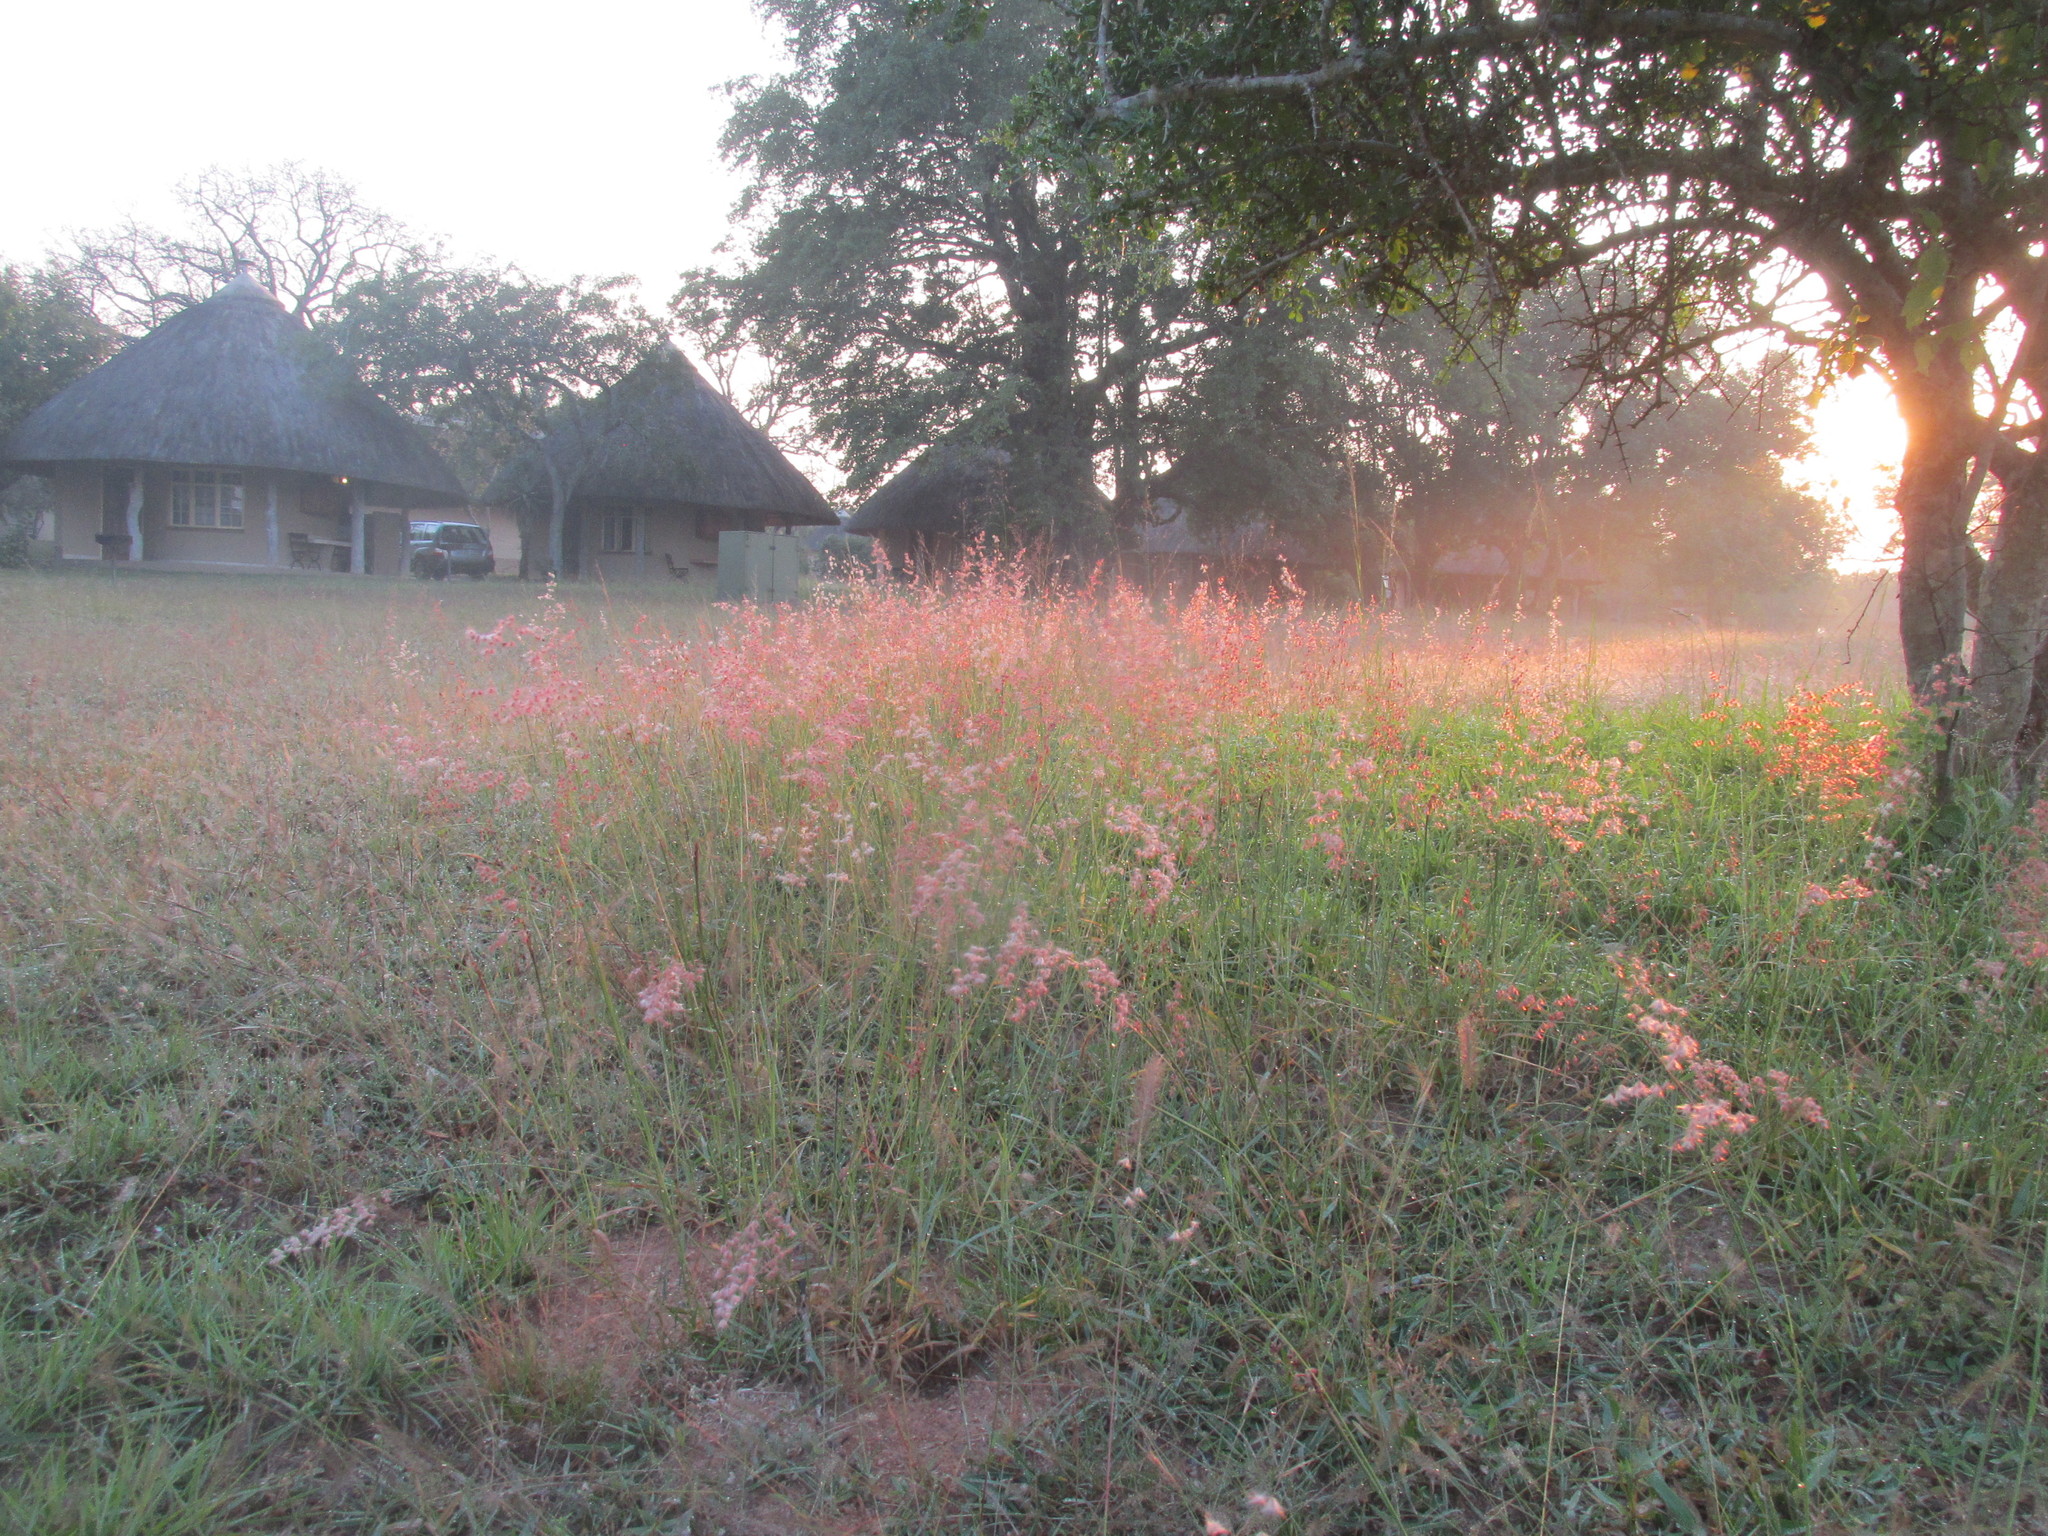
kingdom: Plantae
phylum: Tracheophyta
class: Liliopsida
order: Poales
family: Poaceae
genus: Melinis
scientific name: Melinis repens
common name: Rose natal grass
